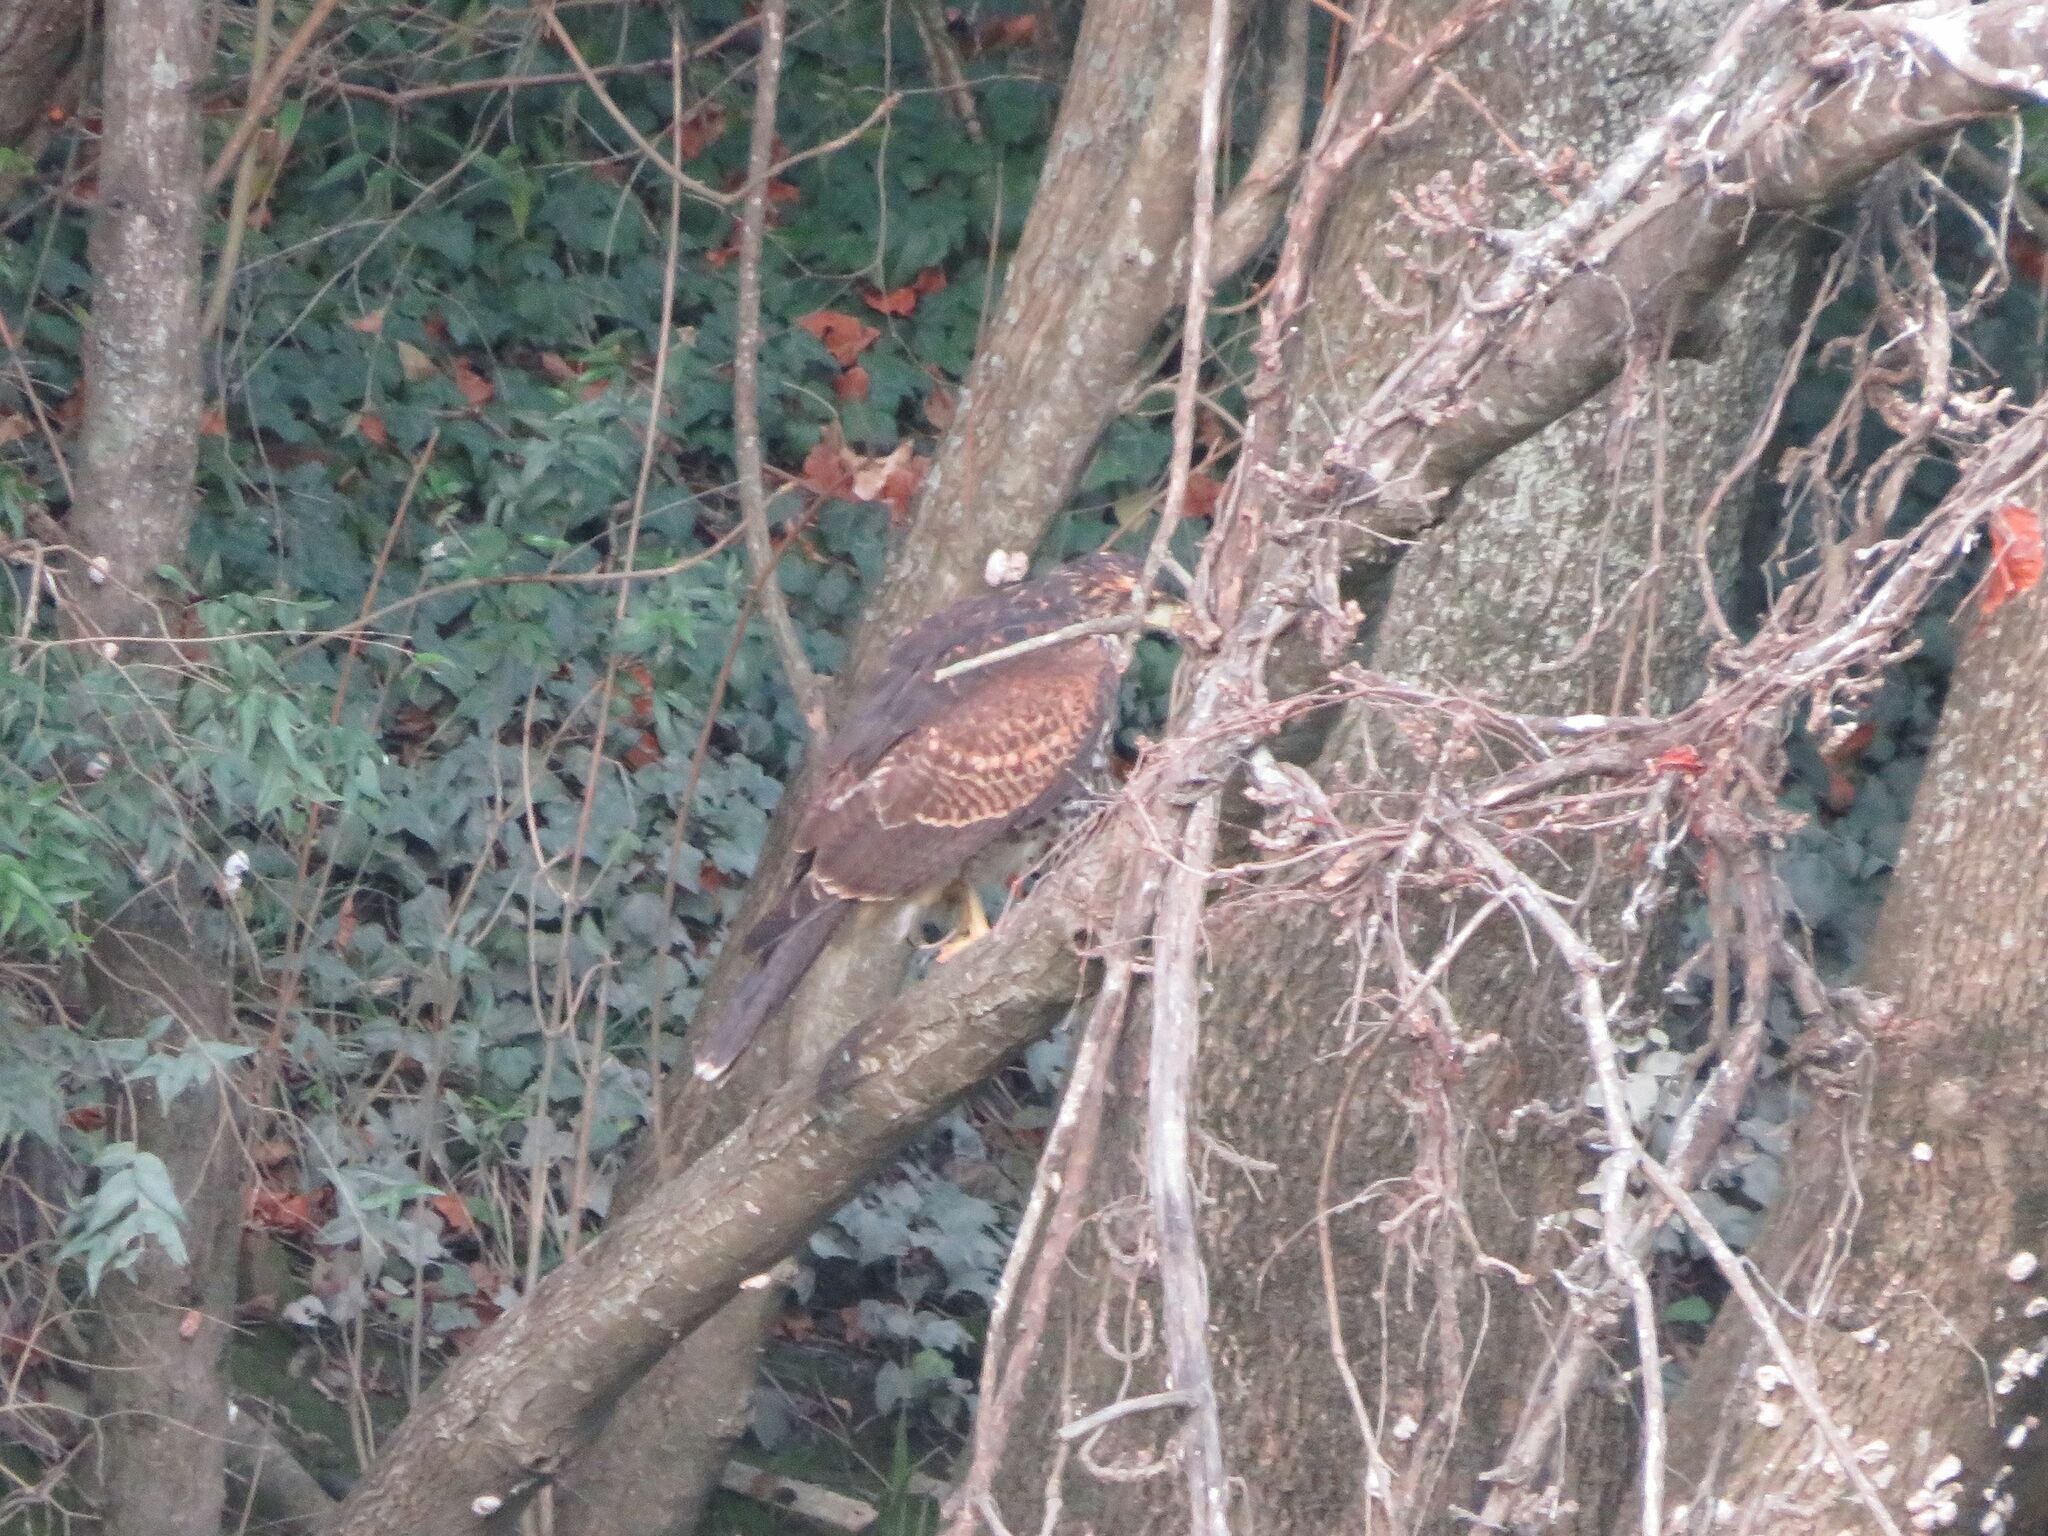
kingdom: Animalia
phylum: Chordata
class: Aves
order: Accipitriformes
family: Accipitridae
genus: Parabuteo
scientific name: Parabuteo unicinctus
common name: Harris's hawk
